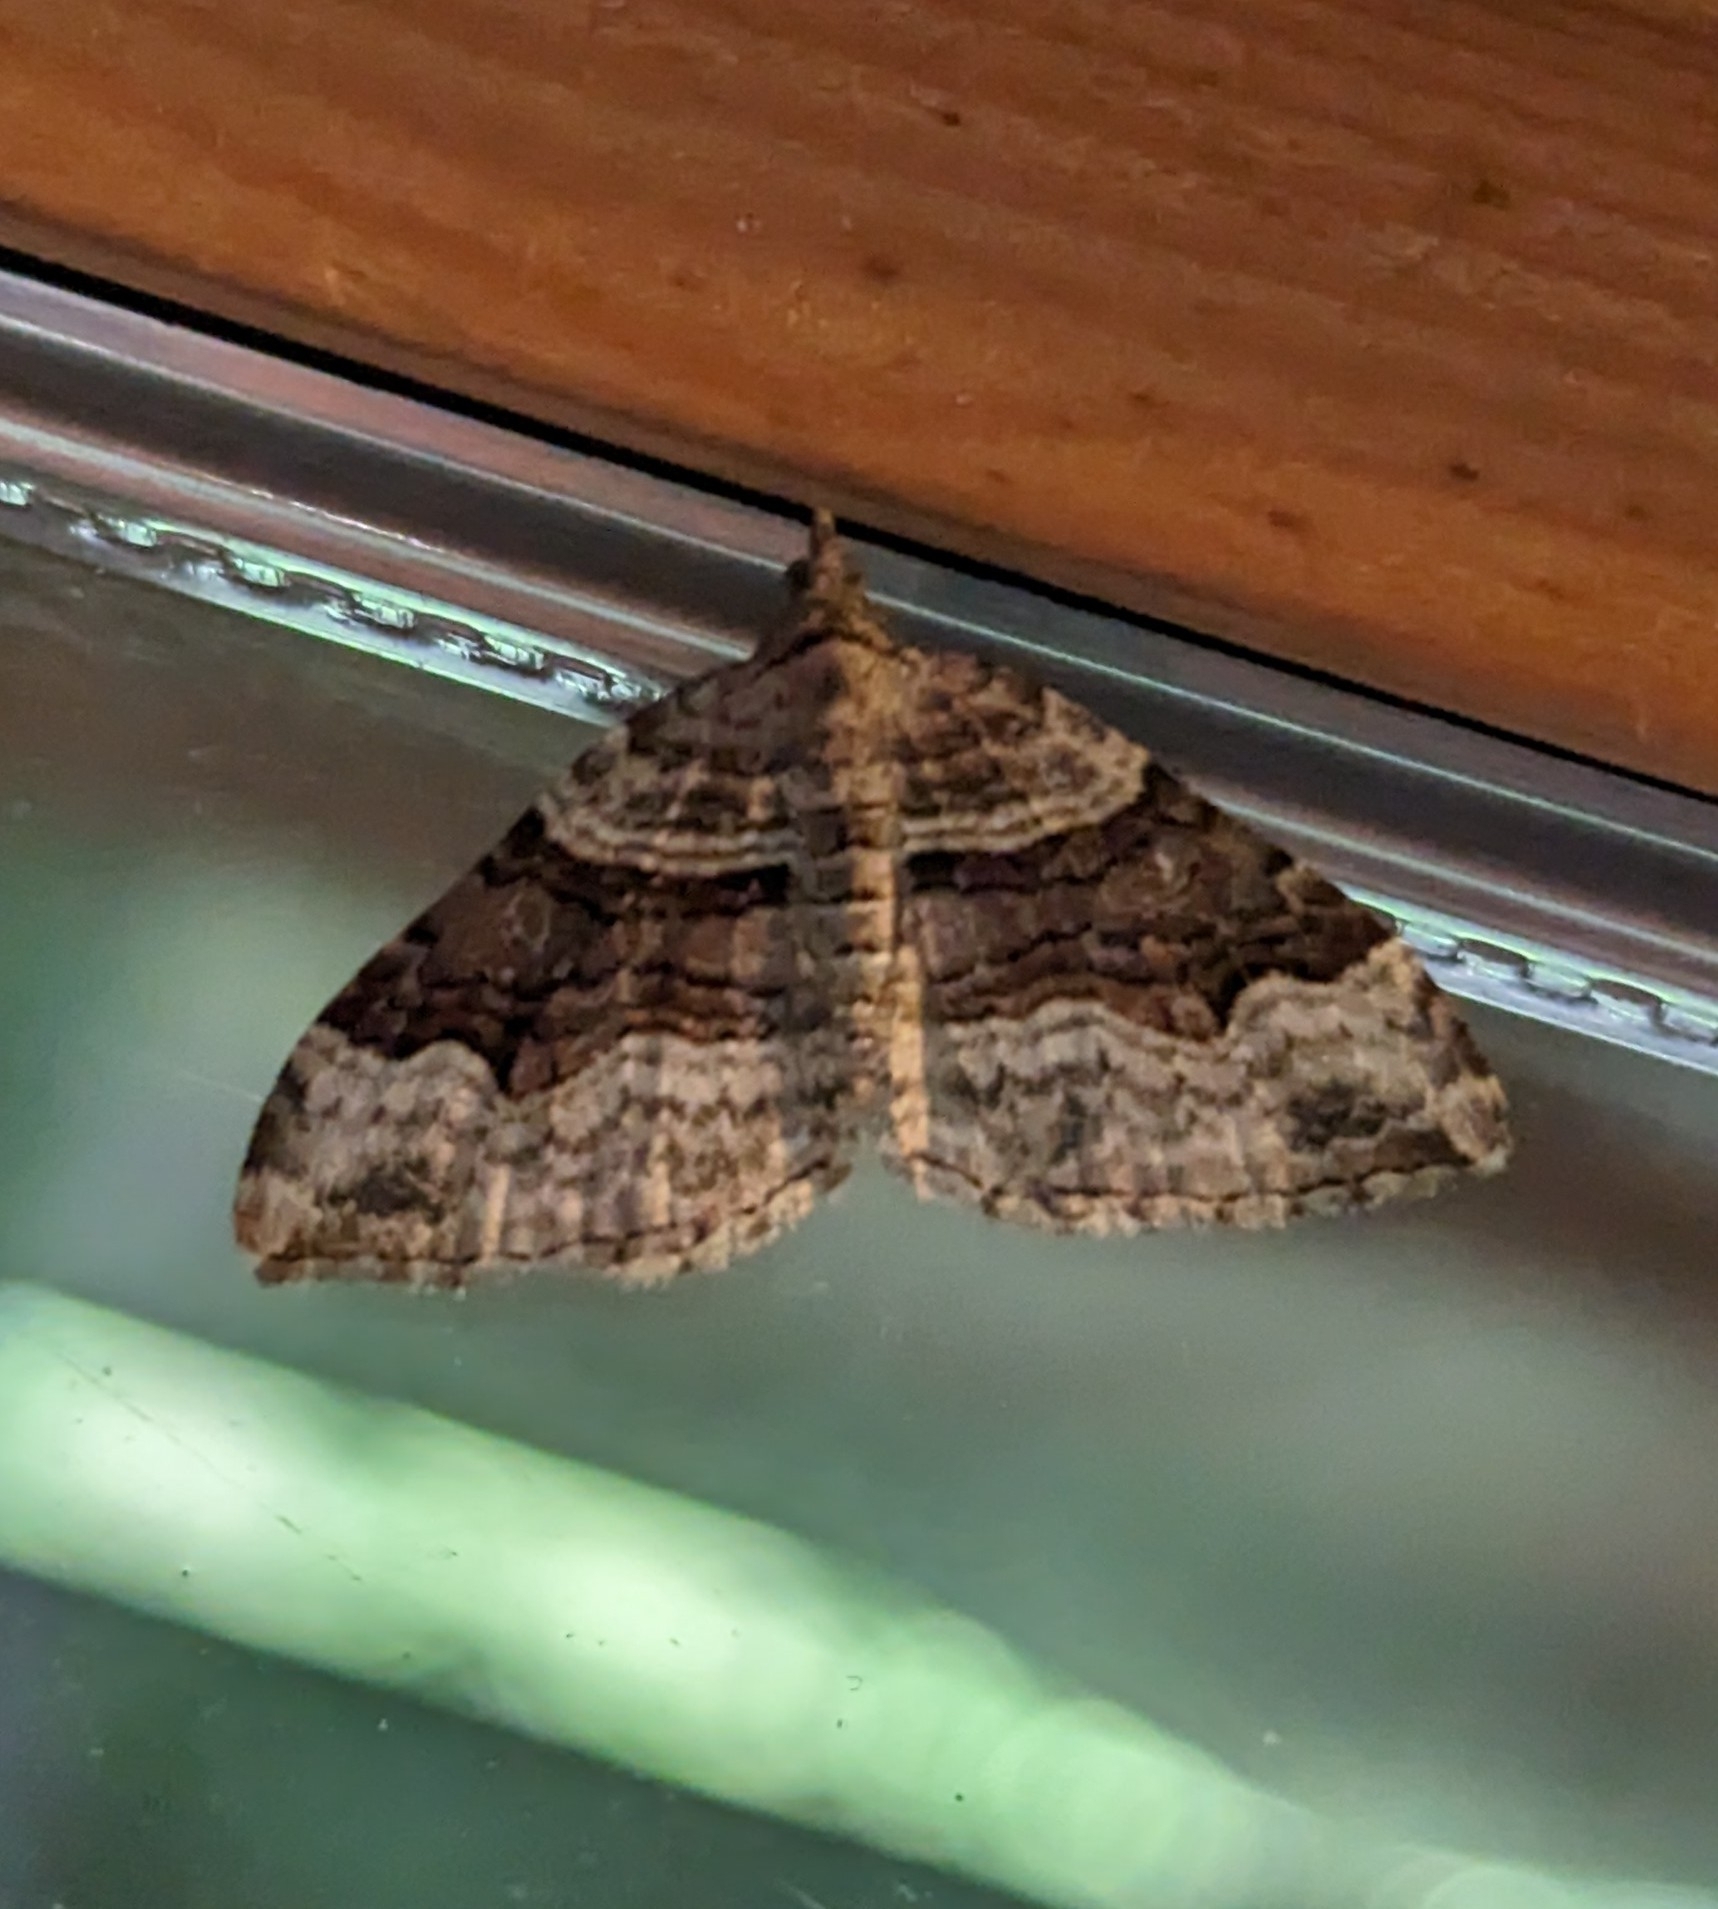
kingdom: Animalia
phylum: Arthropoda
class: Insecta
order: Lepidoptera
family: Geometridae
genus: Xanthorhoe
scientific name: Xanthorhoe defensaria
